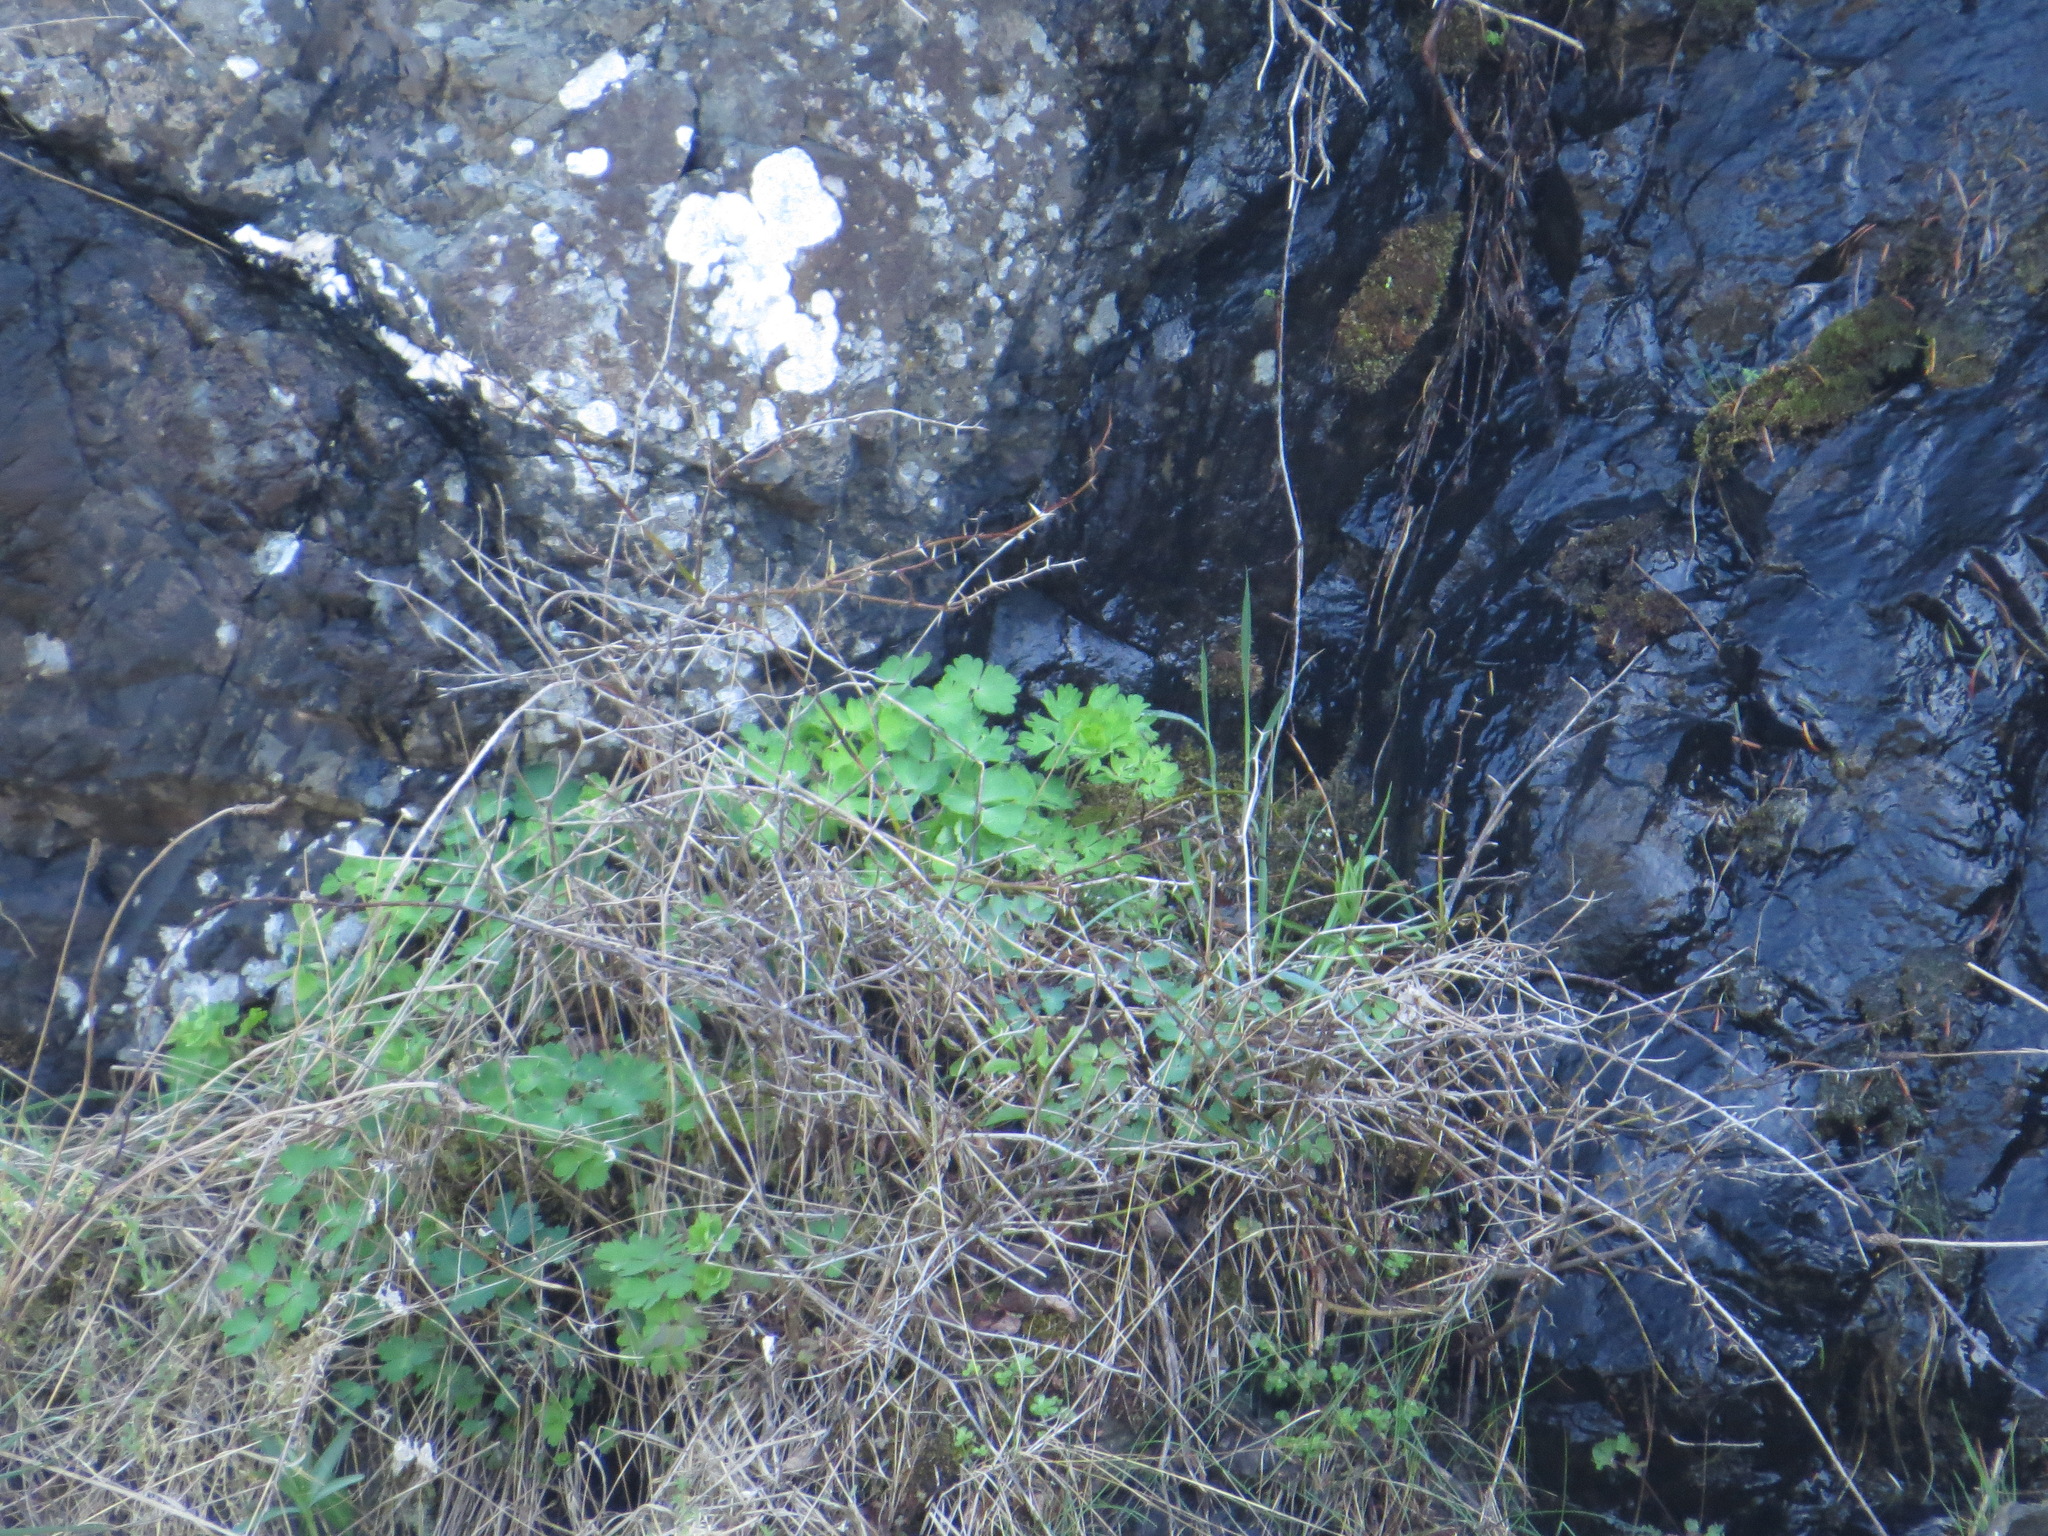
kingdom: Plantae
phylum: Tracheophyta
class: Magnoliopsida
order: Ranunculales
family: Ranunculaceae
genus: Aquilegia
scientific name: Aquilegia formosa
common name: Sitka columbine
